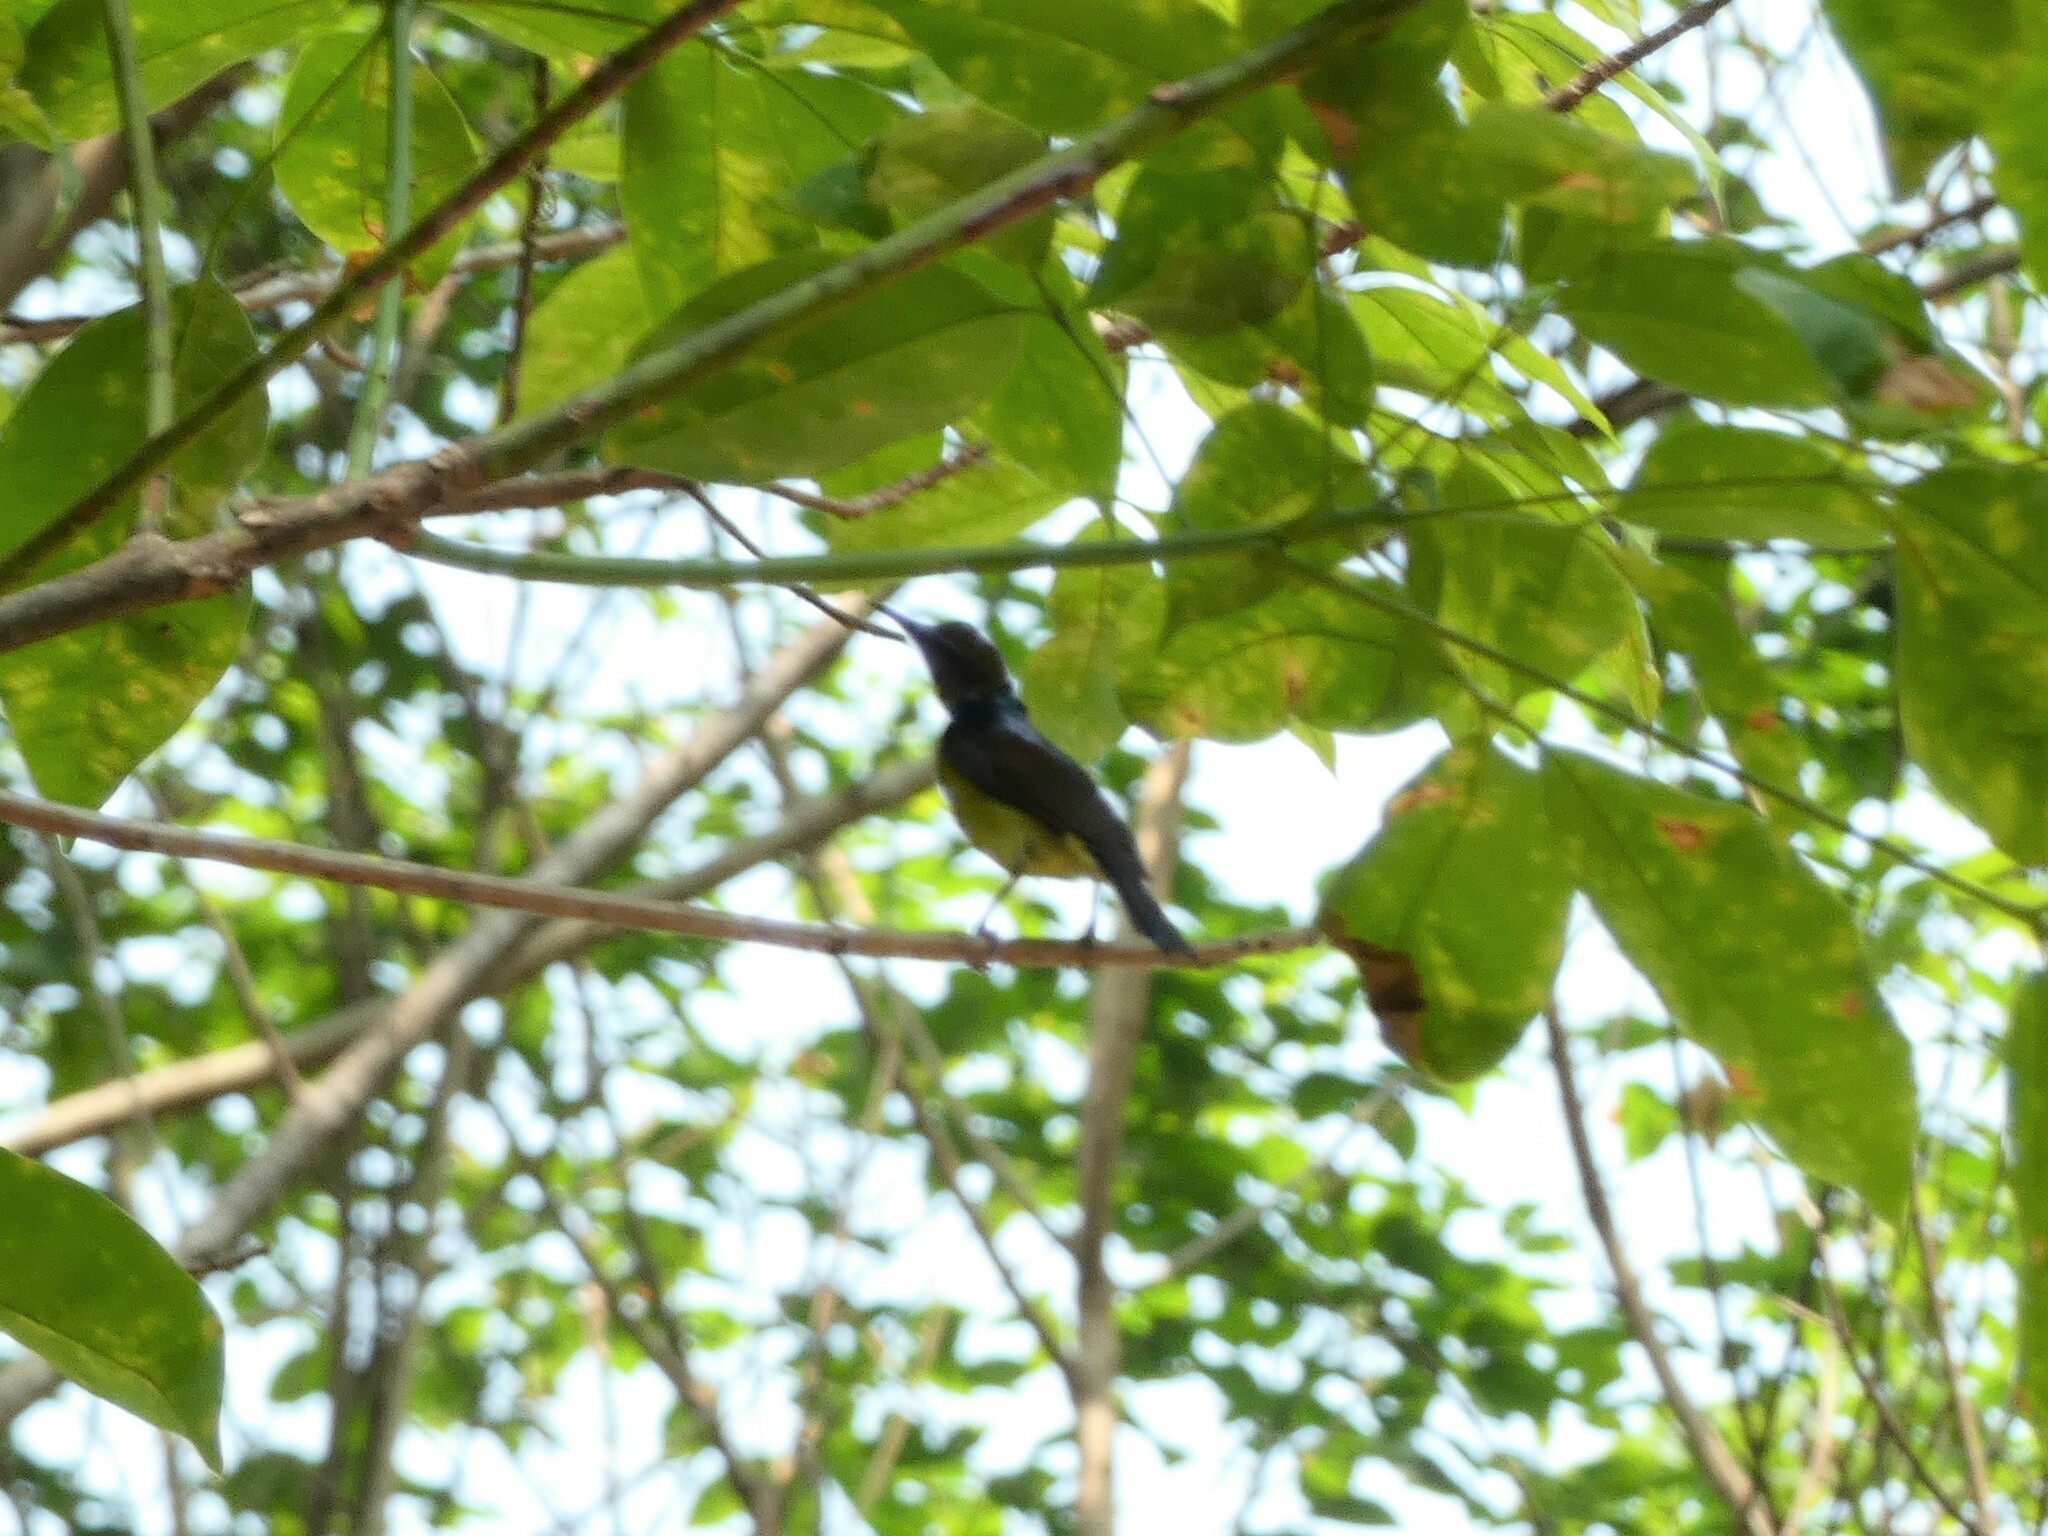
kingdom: Animalia
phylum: Chordata
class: Aves
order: Passeriformes
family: Nectariniidae
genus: Anthreptes
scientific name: Anthreptes malacensis
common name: Brown-throated sunbird
